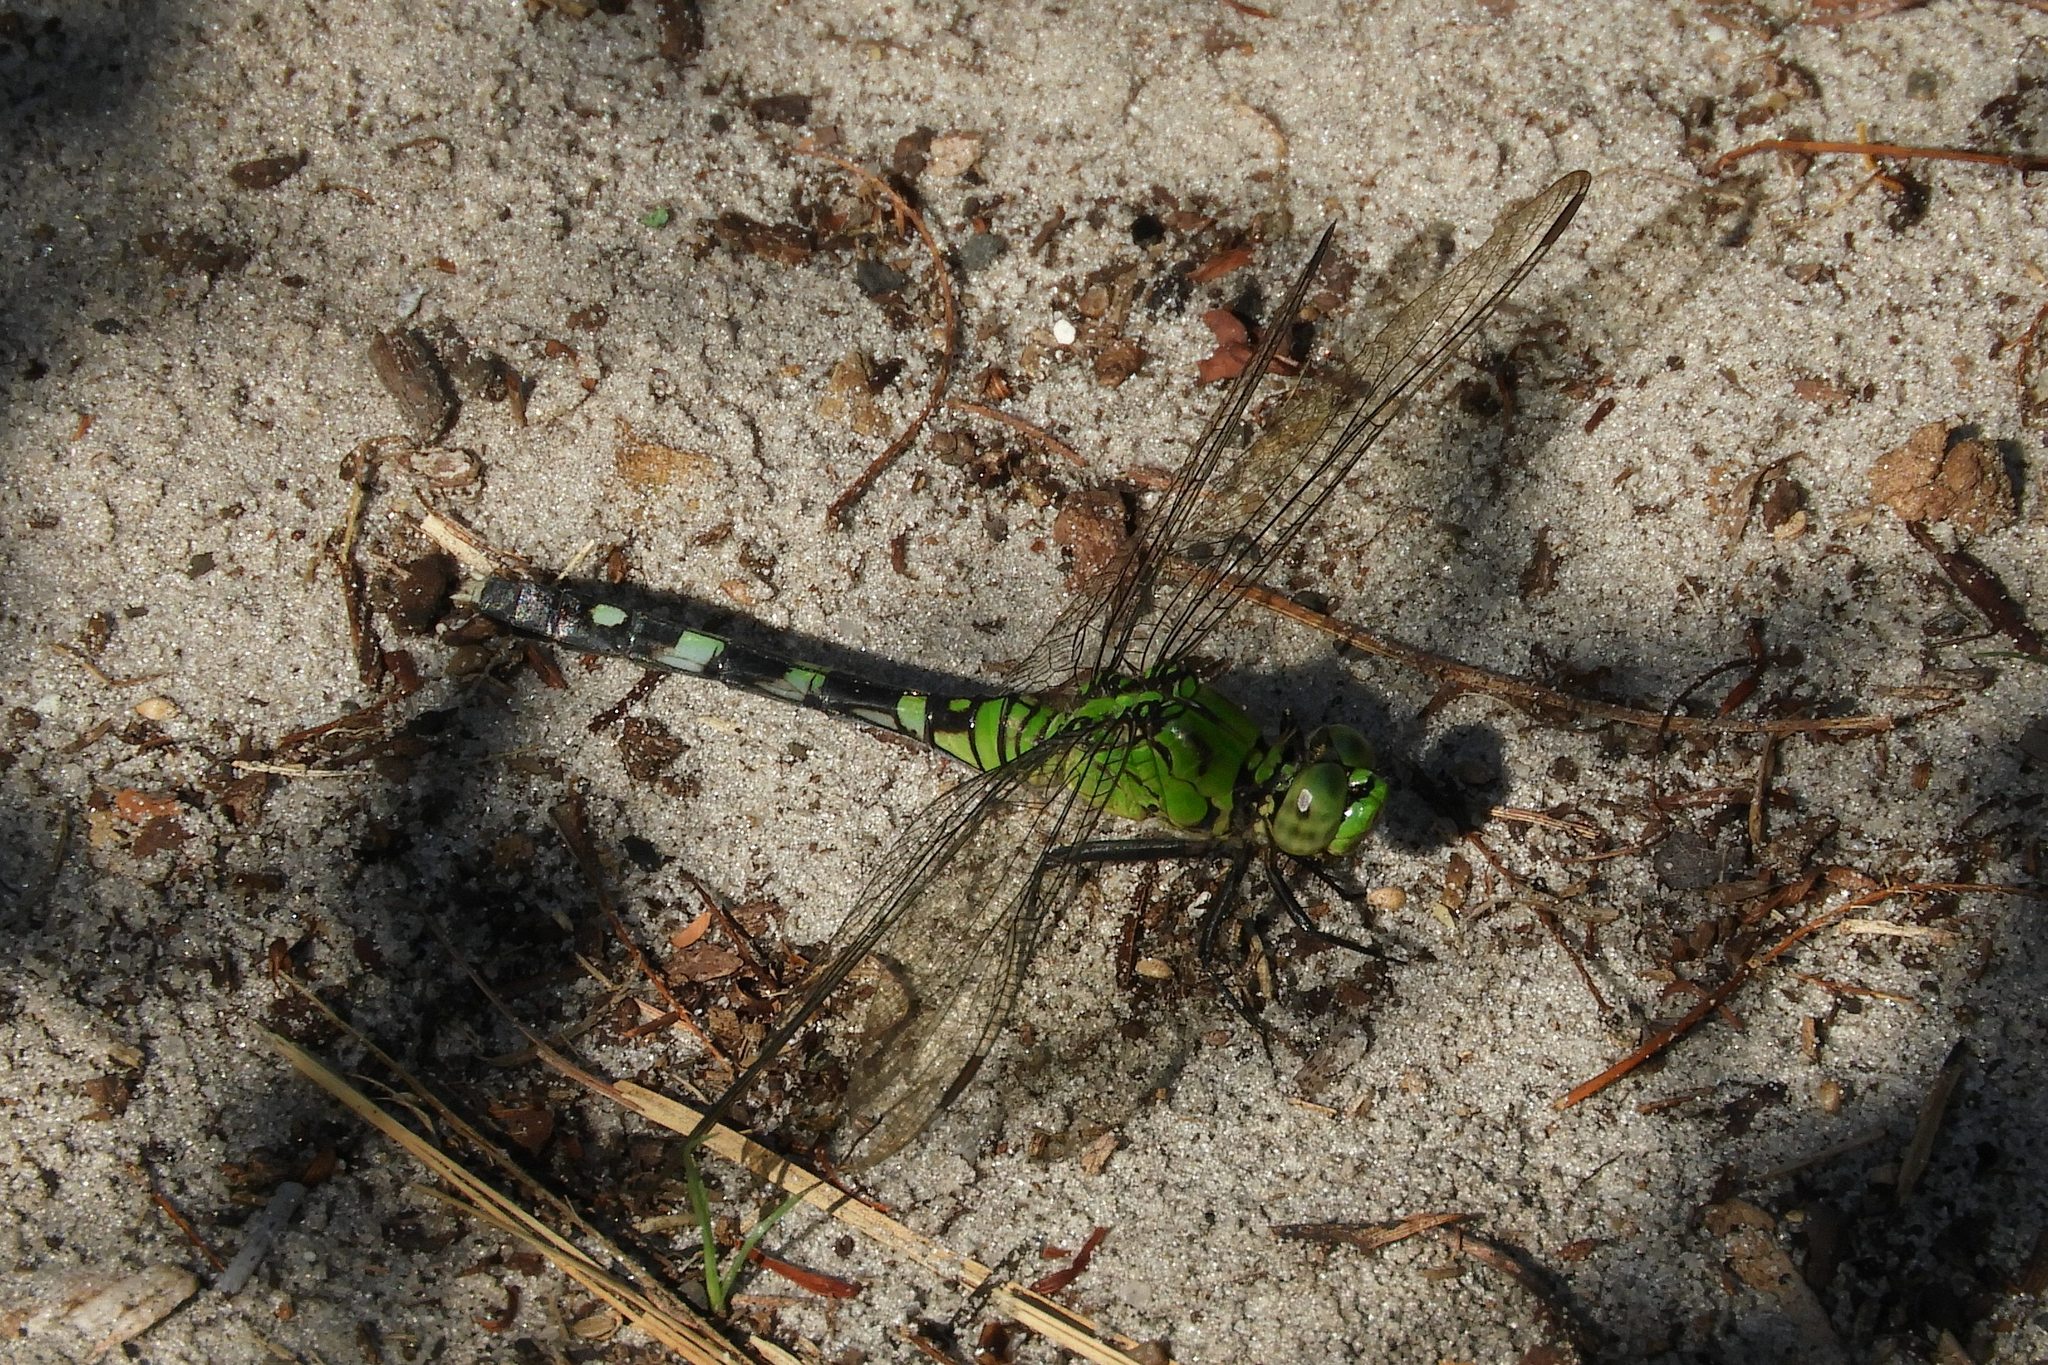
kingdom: Animalia
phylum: Arthropoda
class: Insecta
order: Odonata
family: Libellulidae
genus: Erythemis
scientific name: Erythemis simplicicollis
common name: Eastern pondhawk
